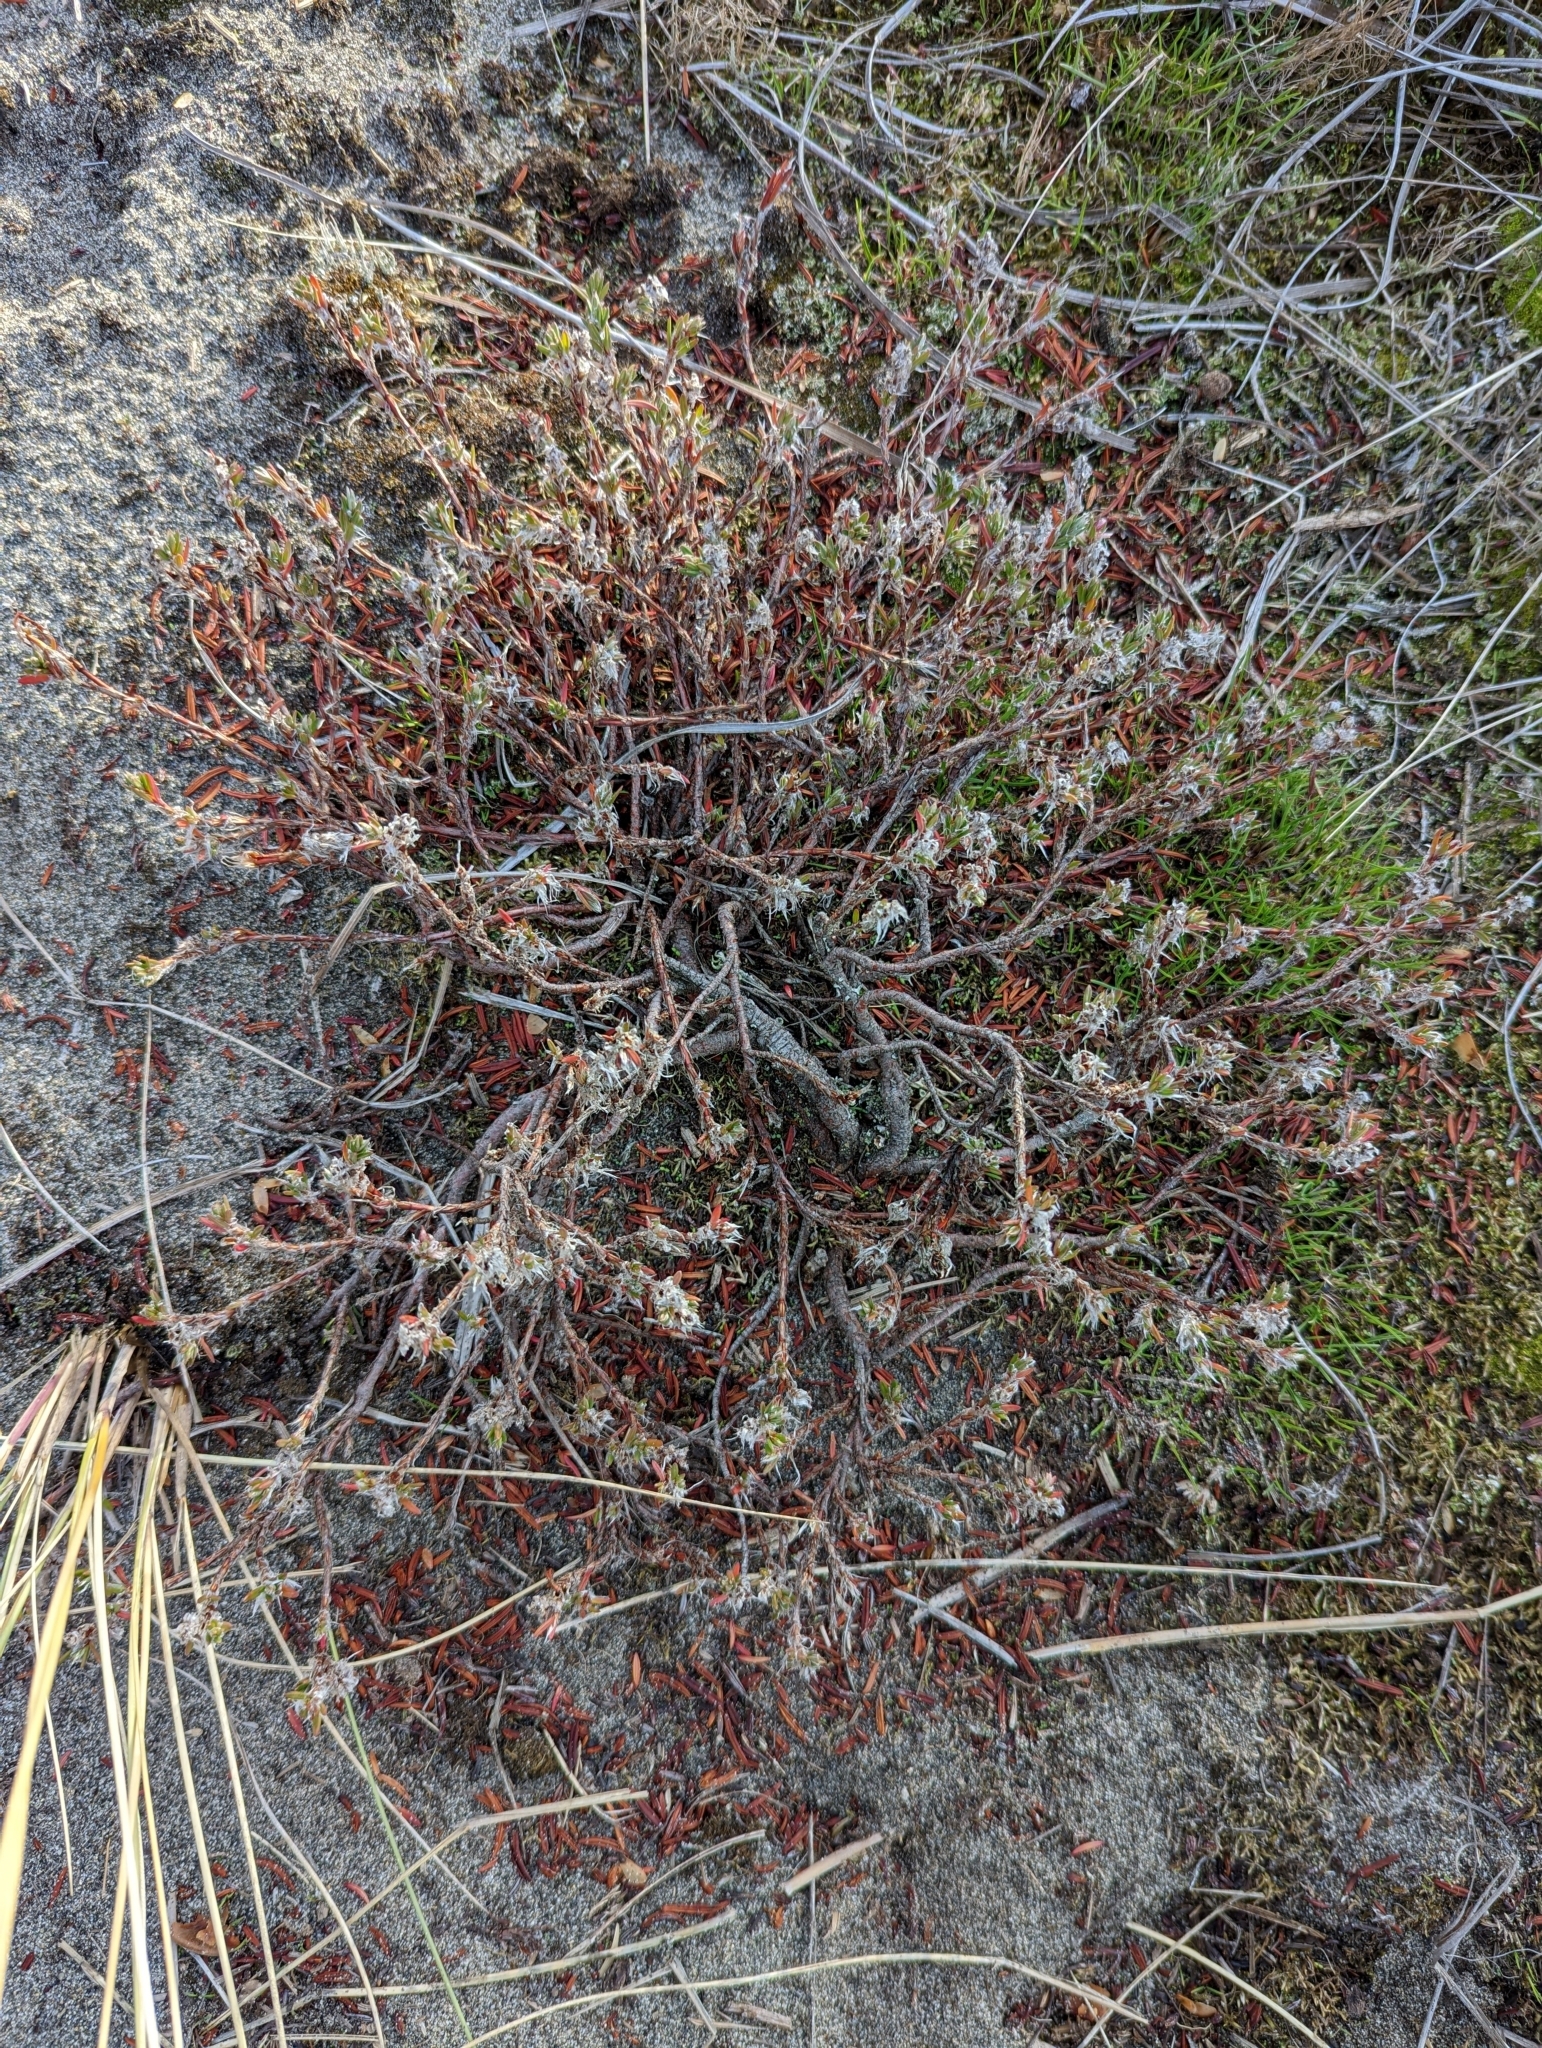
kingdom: Plantae
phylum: Tracheophyta
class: Magnoliopsida
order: Caryophyllales
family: Polygonaceae
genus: Polygonum
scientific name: Polygonum paronychia
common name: Dune knotweed
